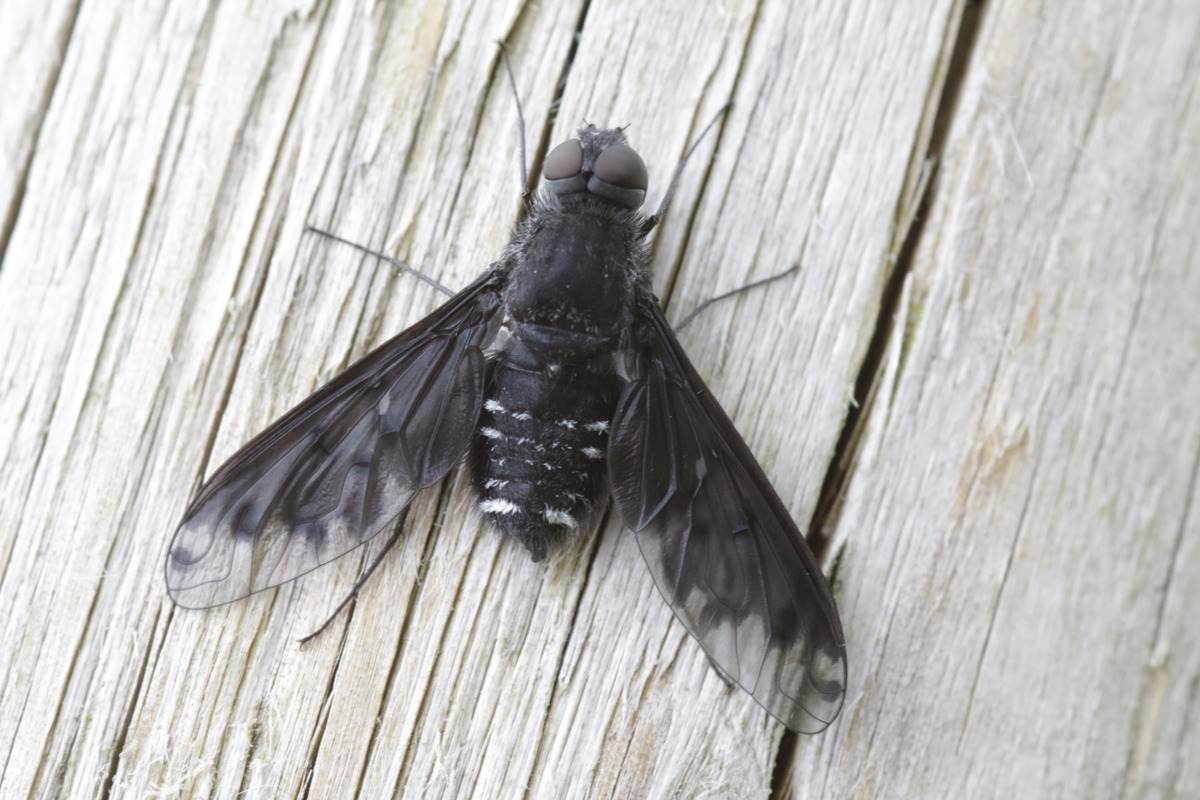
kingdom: Animalia
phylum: Arthropoda
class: Insecta
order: Diptera
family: Bombyliidae
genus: Anthrax
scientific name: Anthrax anthrax
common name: Anthracite bee-fly
